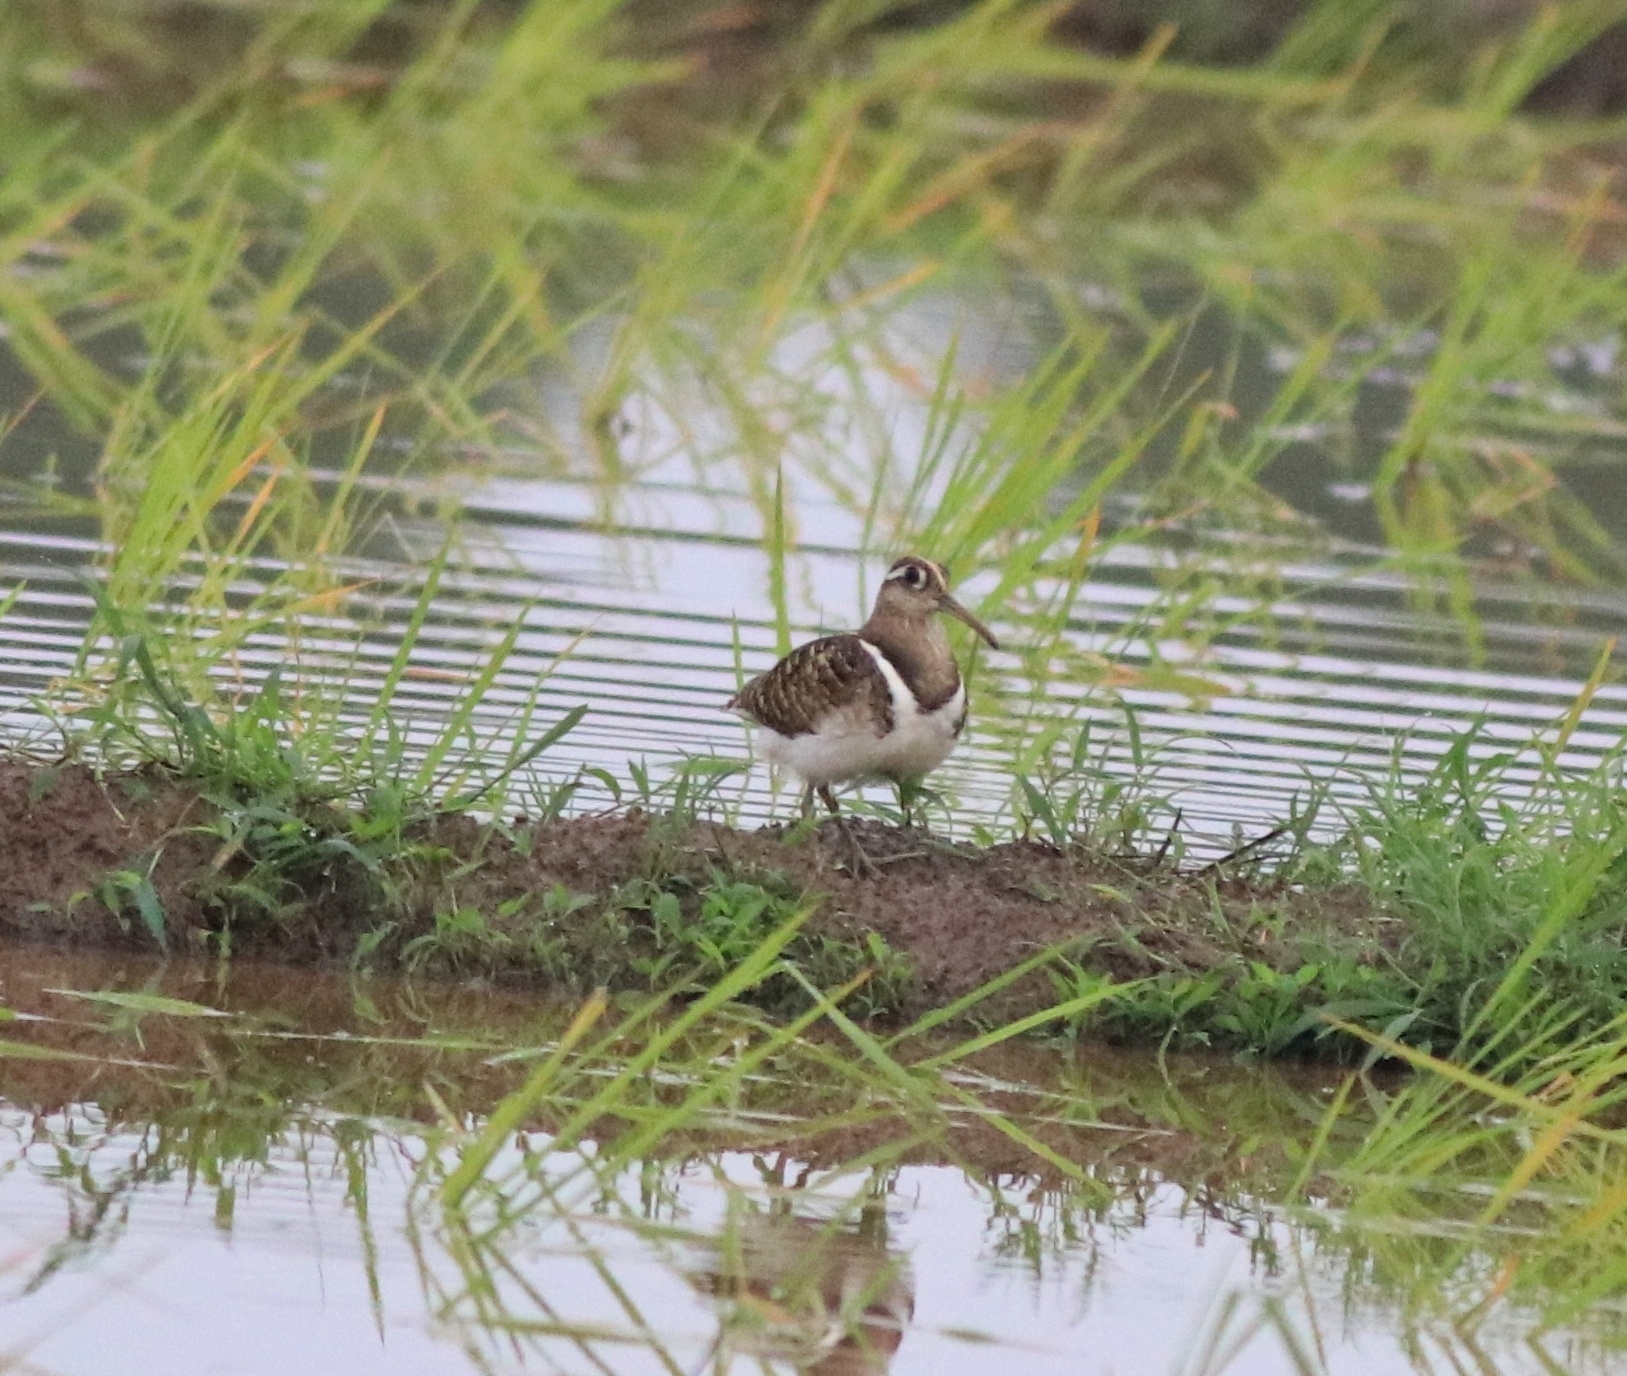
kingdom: Animalia
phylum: Chordata
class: Aves
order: Charadriiformes
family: Rostratulidae
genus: Rostratula
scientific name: Rostratula benghalensis
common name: Greater painted-snipe
